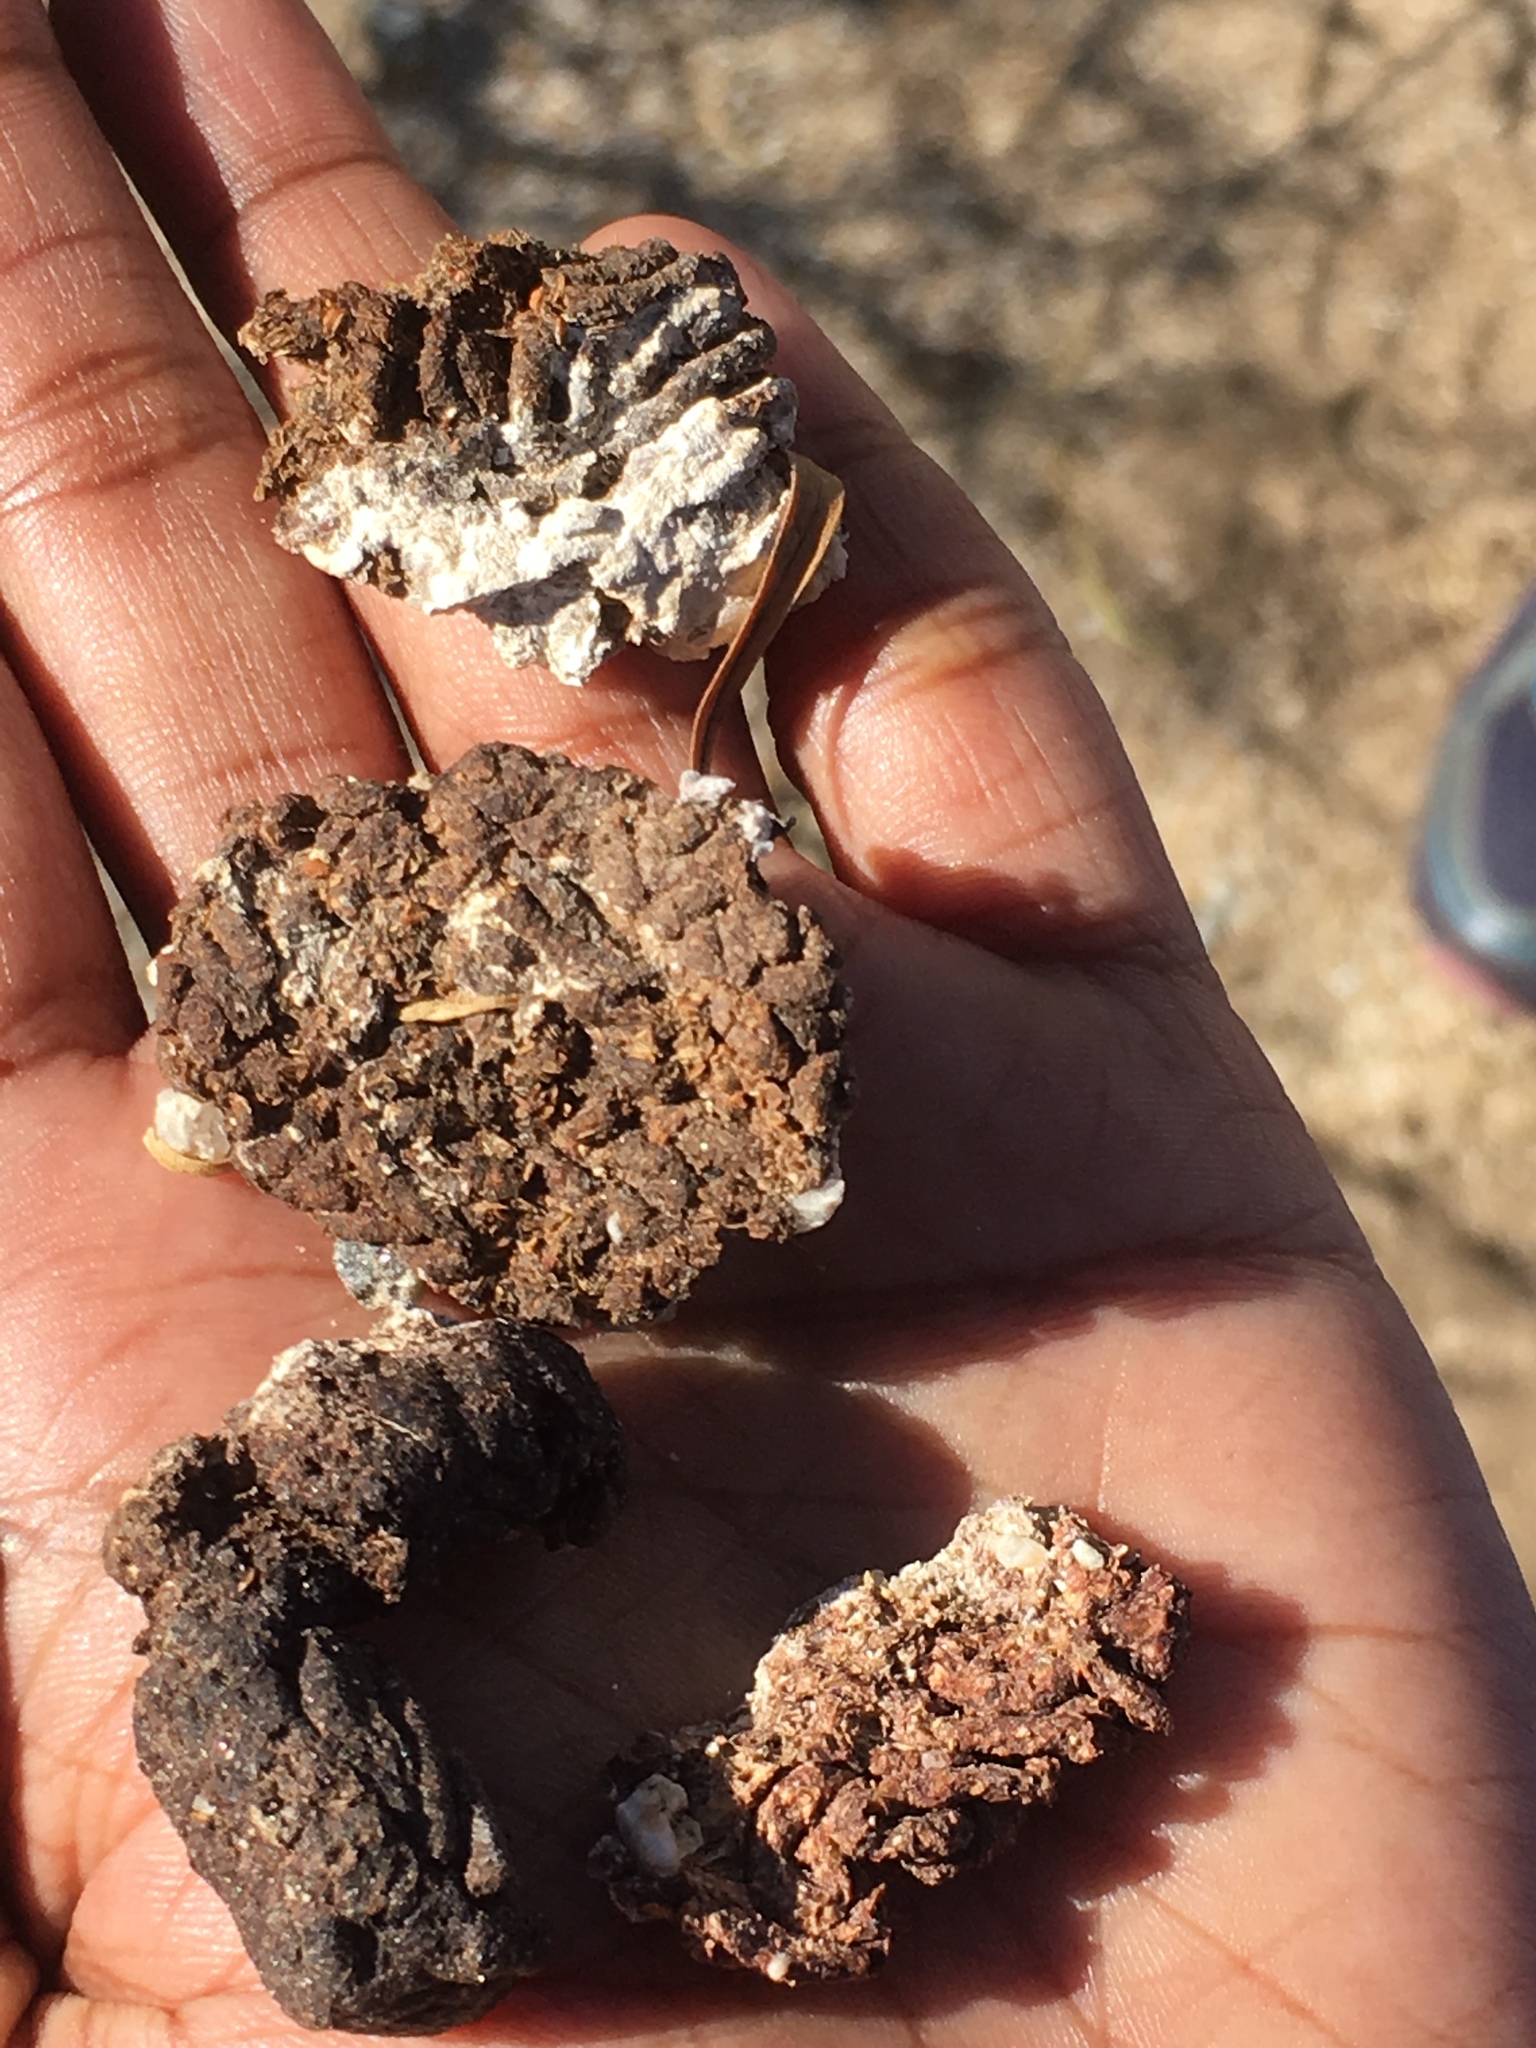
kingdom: Animalia
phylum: Chordata
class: Aves
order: Cuculiformes
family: Cuculidae
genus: Geococcyx
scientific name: Geococcyx californianus
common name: Greater roadrunner
